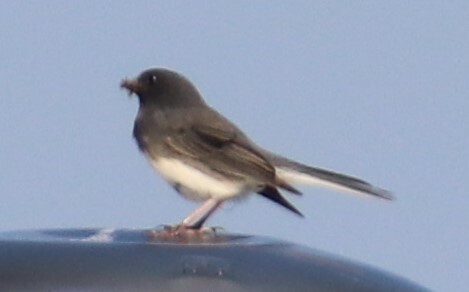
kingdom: Animalia
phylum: Chordata
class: Aves
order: Passeriformes
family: Passerellidae
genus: Junco
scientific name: Junco hyemalis
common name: Dark-eyed junco
